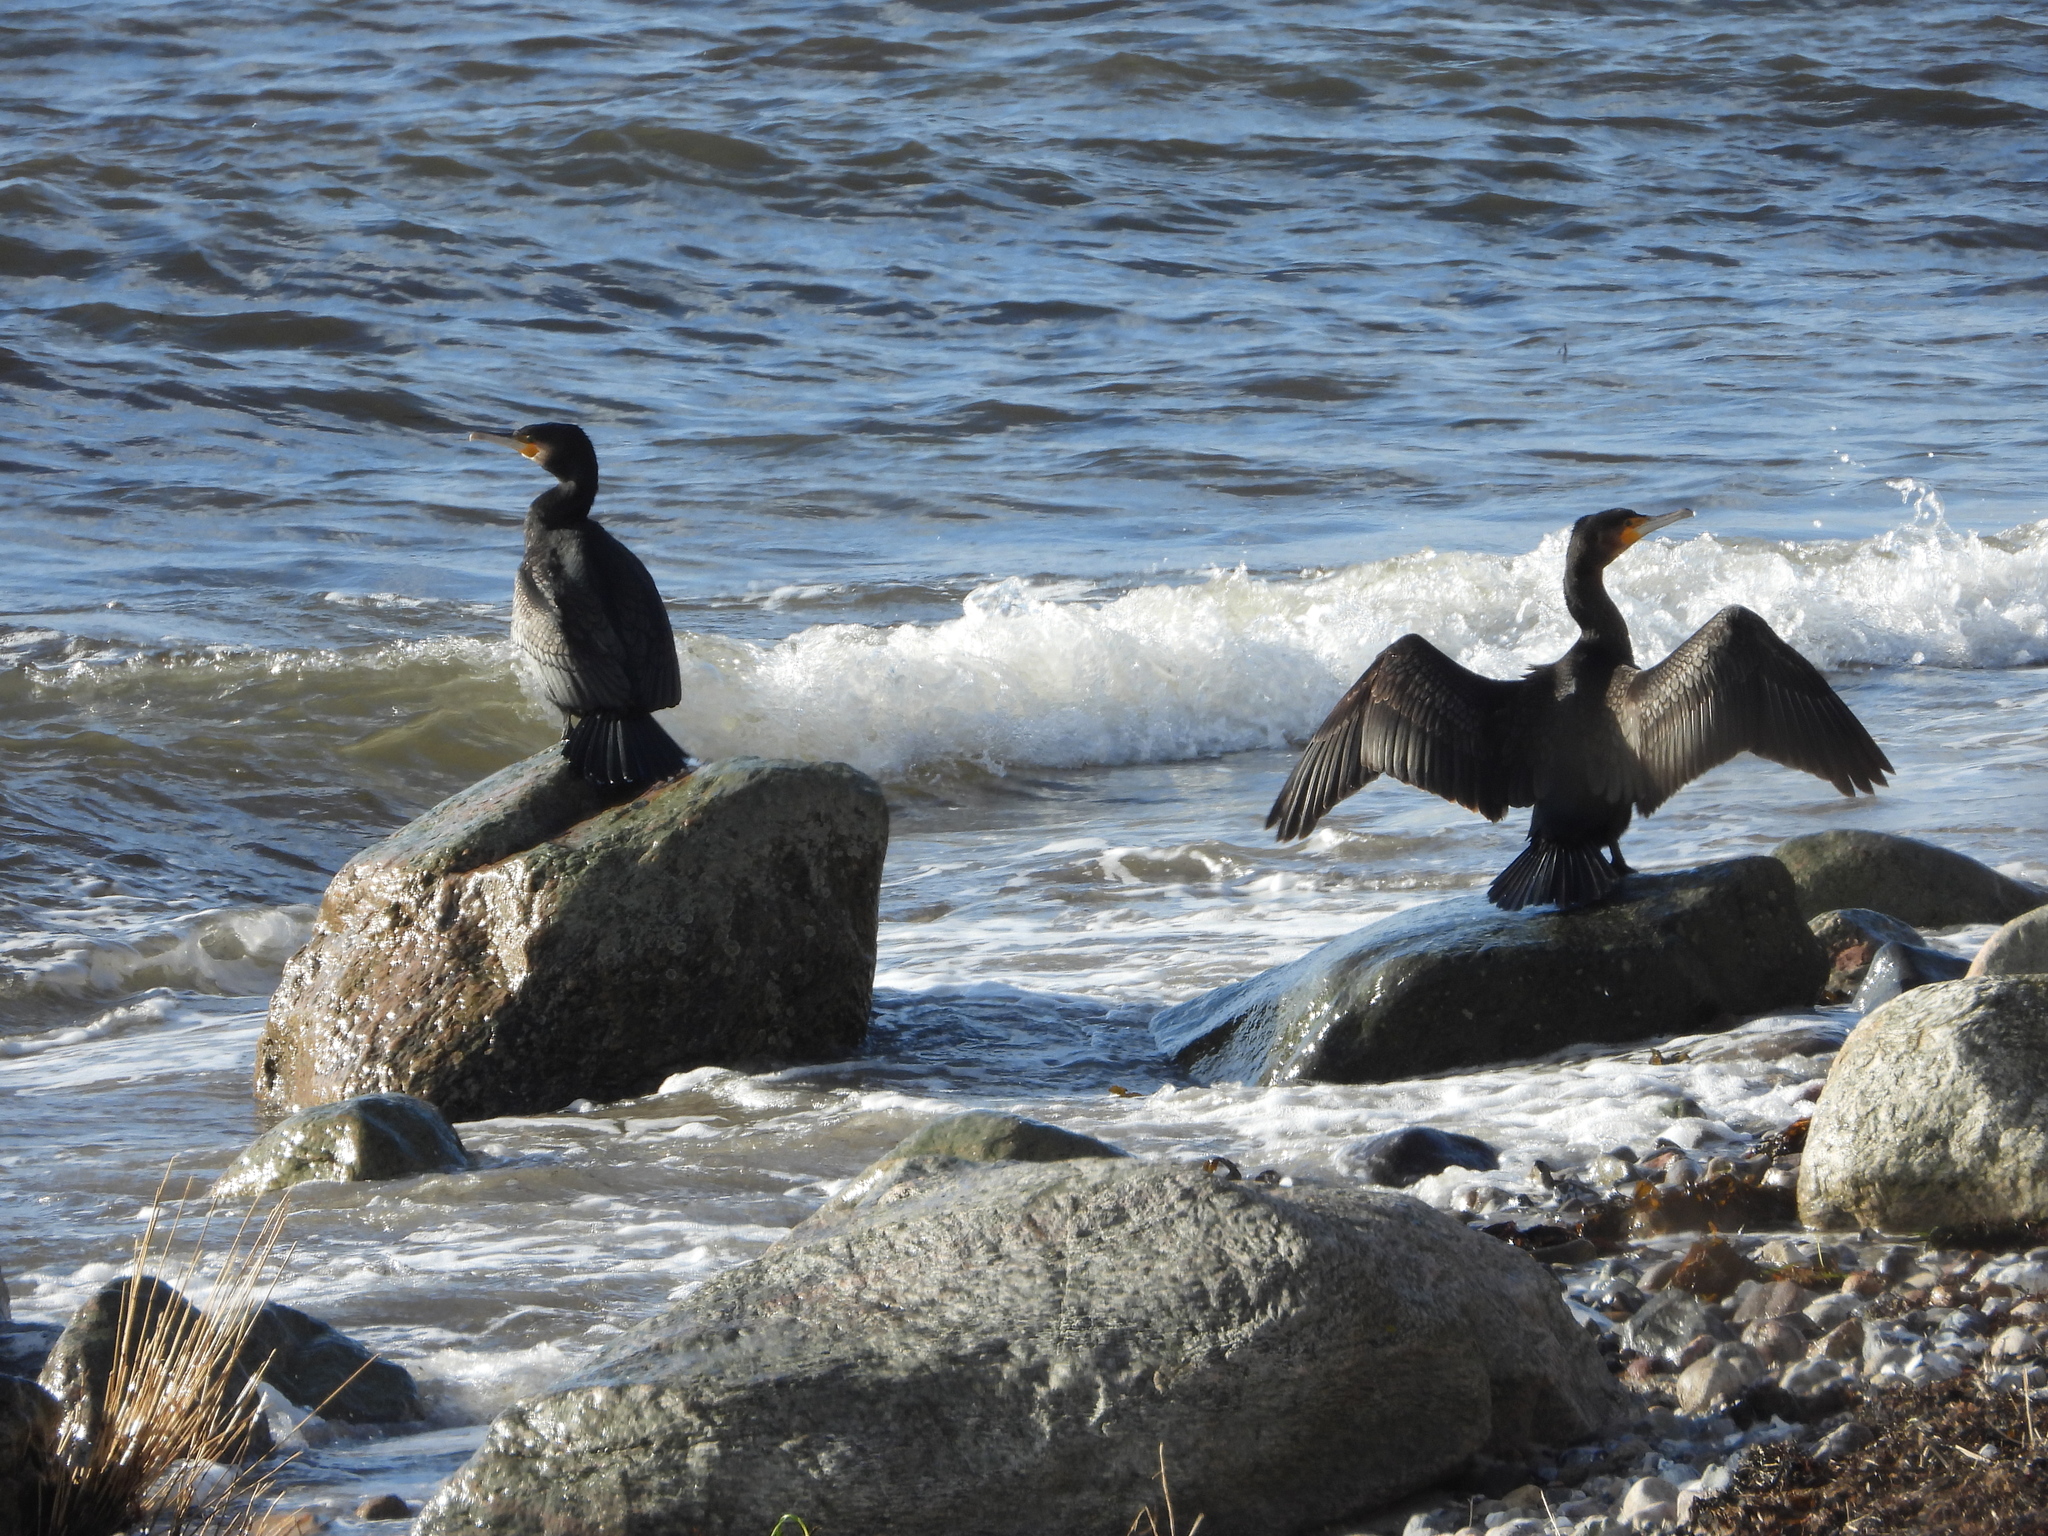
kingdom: Animalia
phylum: Chordata
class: Aves
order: Suliformes
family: Phalacrocoracidae
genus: Phalacrocorax
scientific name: Phalacrocorax carbo
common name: Great cormorant
